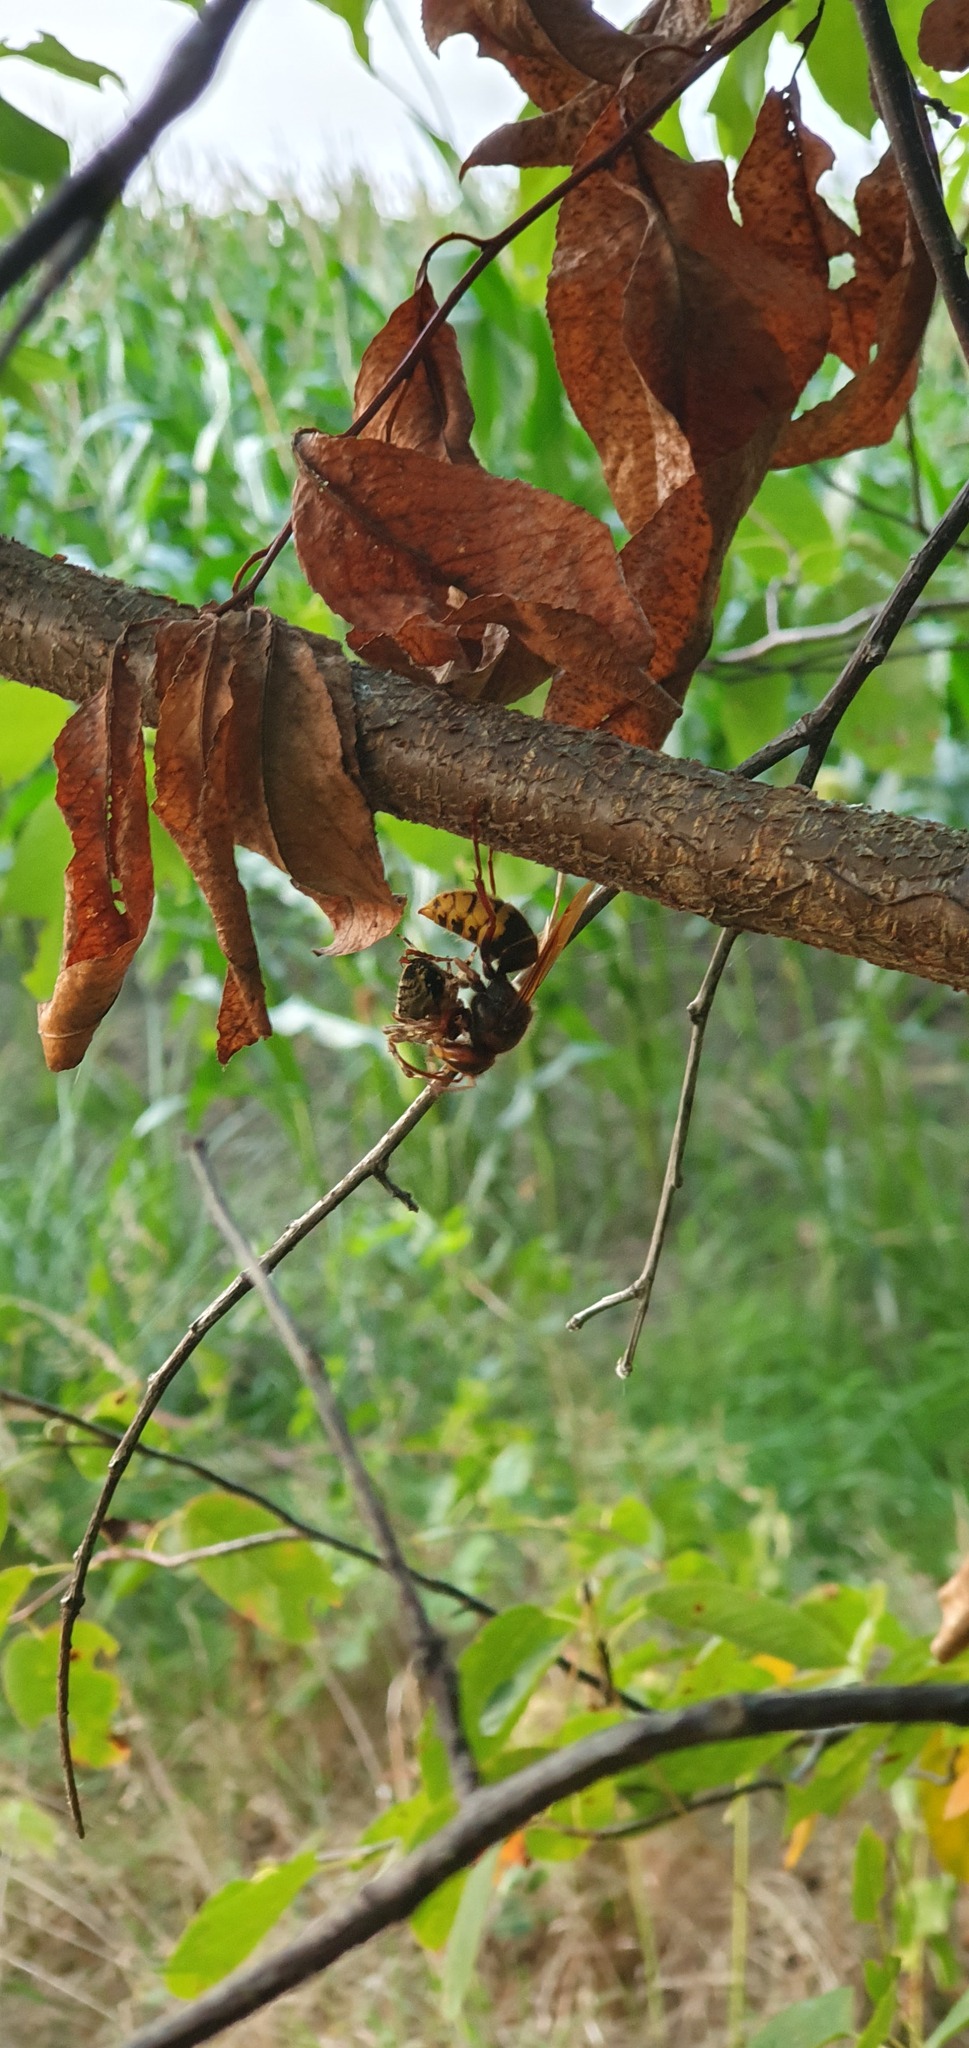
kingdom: Animalia
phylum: Arthropoda
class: Insecta
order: Hymenoptera
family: Vespidae
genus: Vespa
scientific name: Vespa crabro
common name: Hornet
